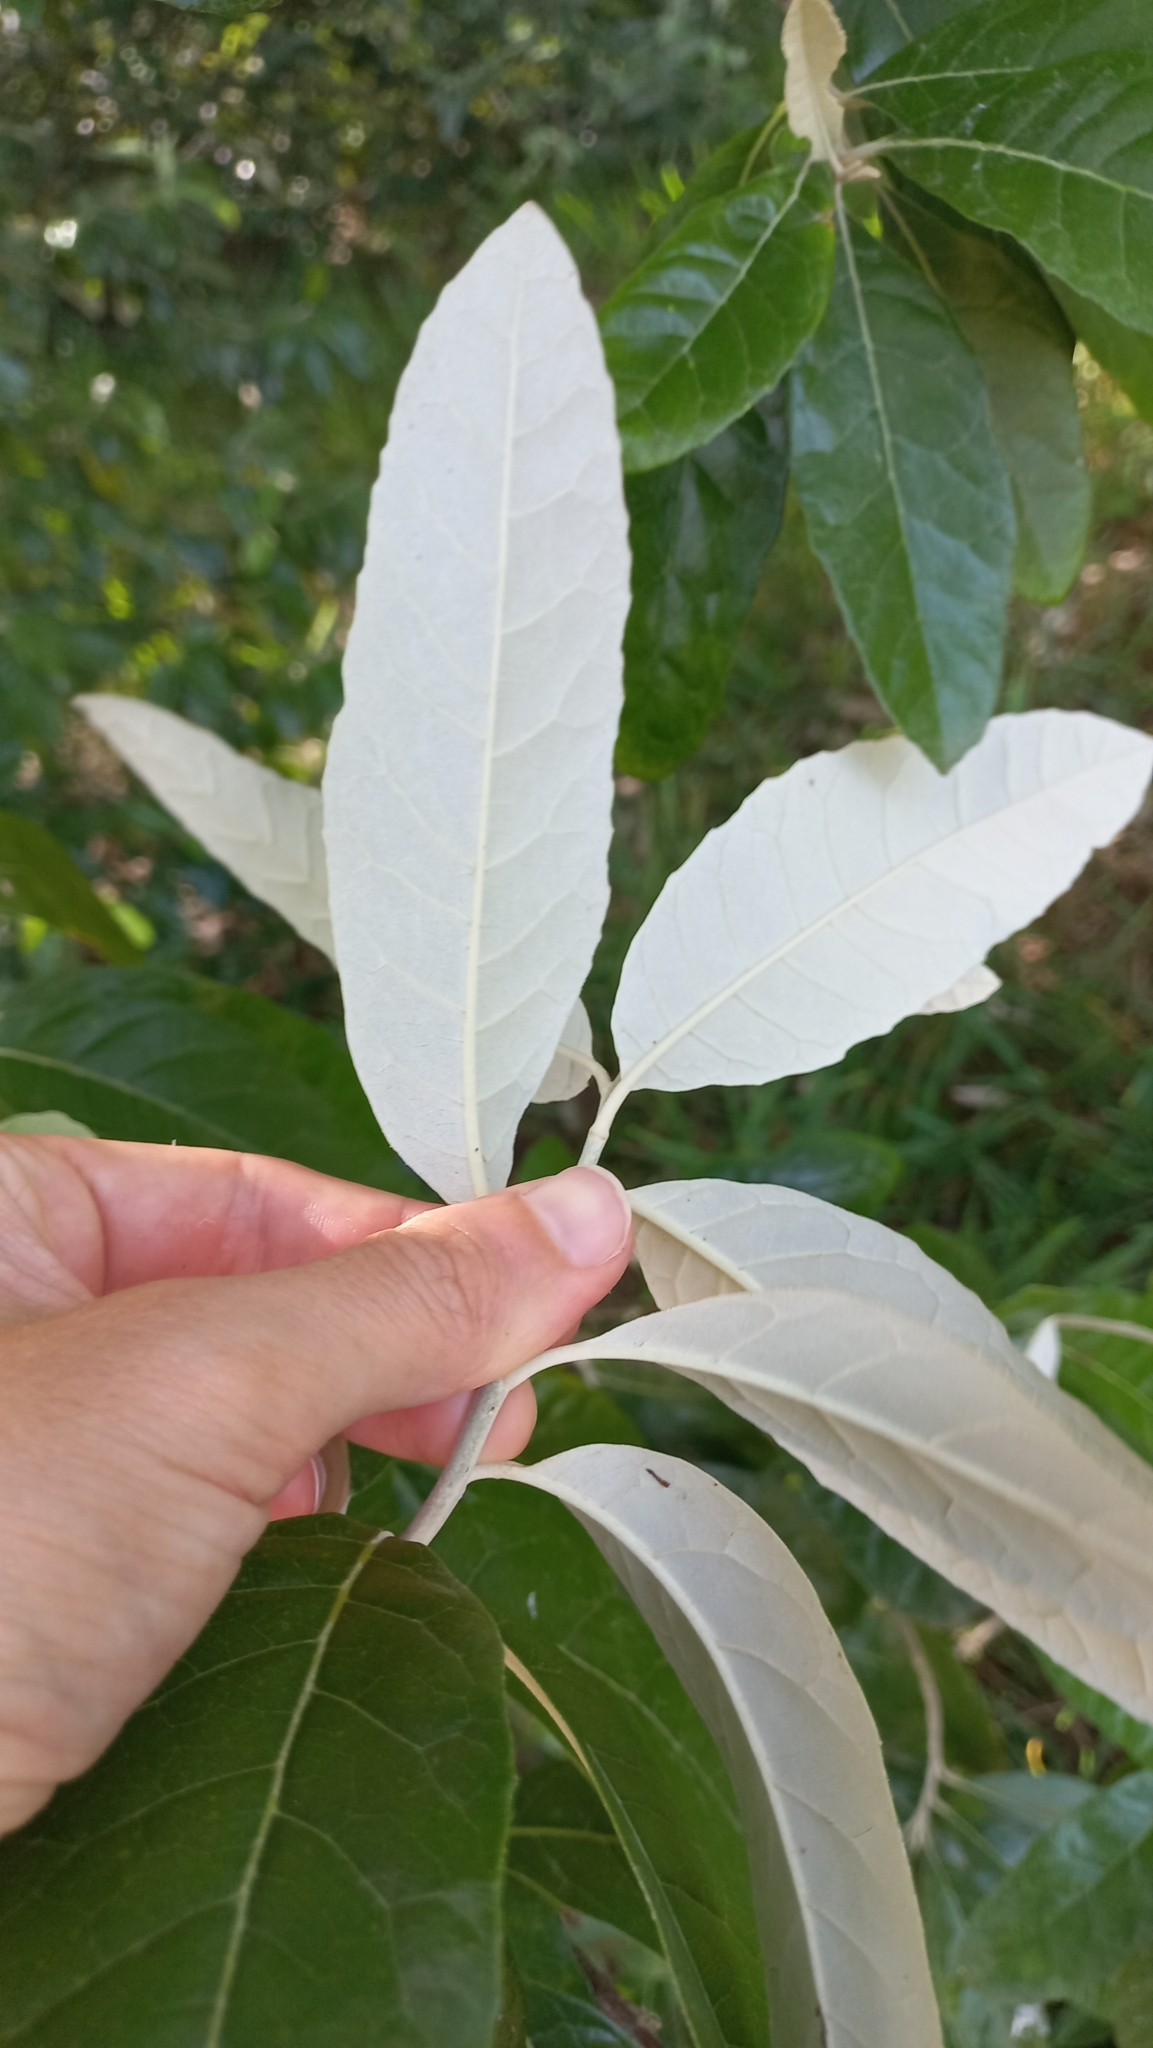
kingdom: Plantae
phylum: Tracheophyta
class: Magnoliopsida
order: Asterales
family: Asteraceae
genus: Brachylaena
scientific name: Brachylaena discolor
